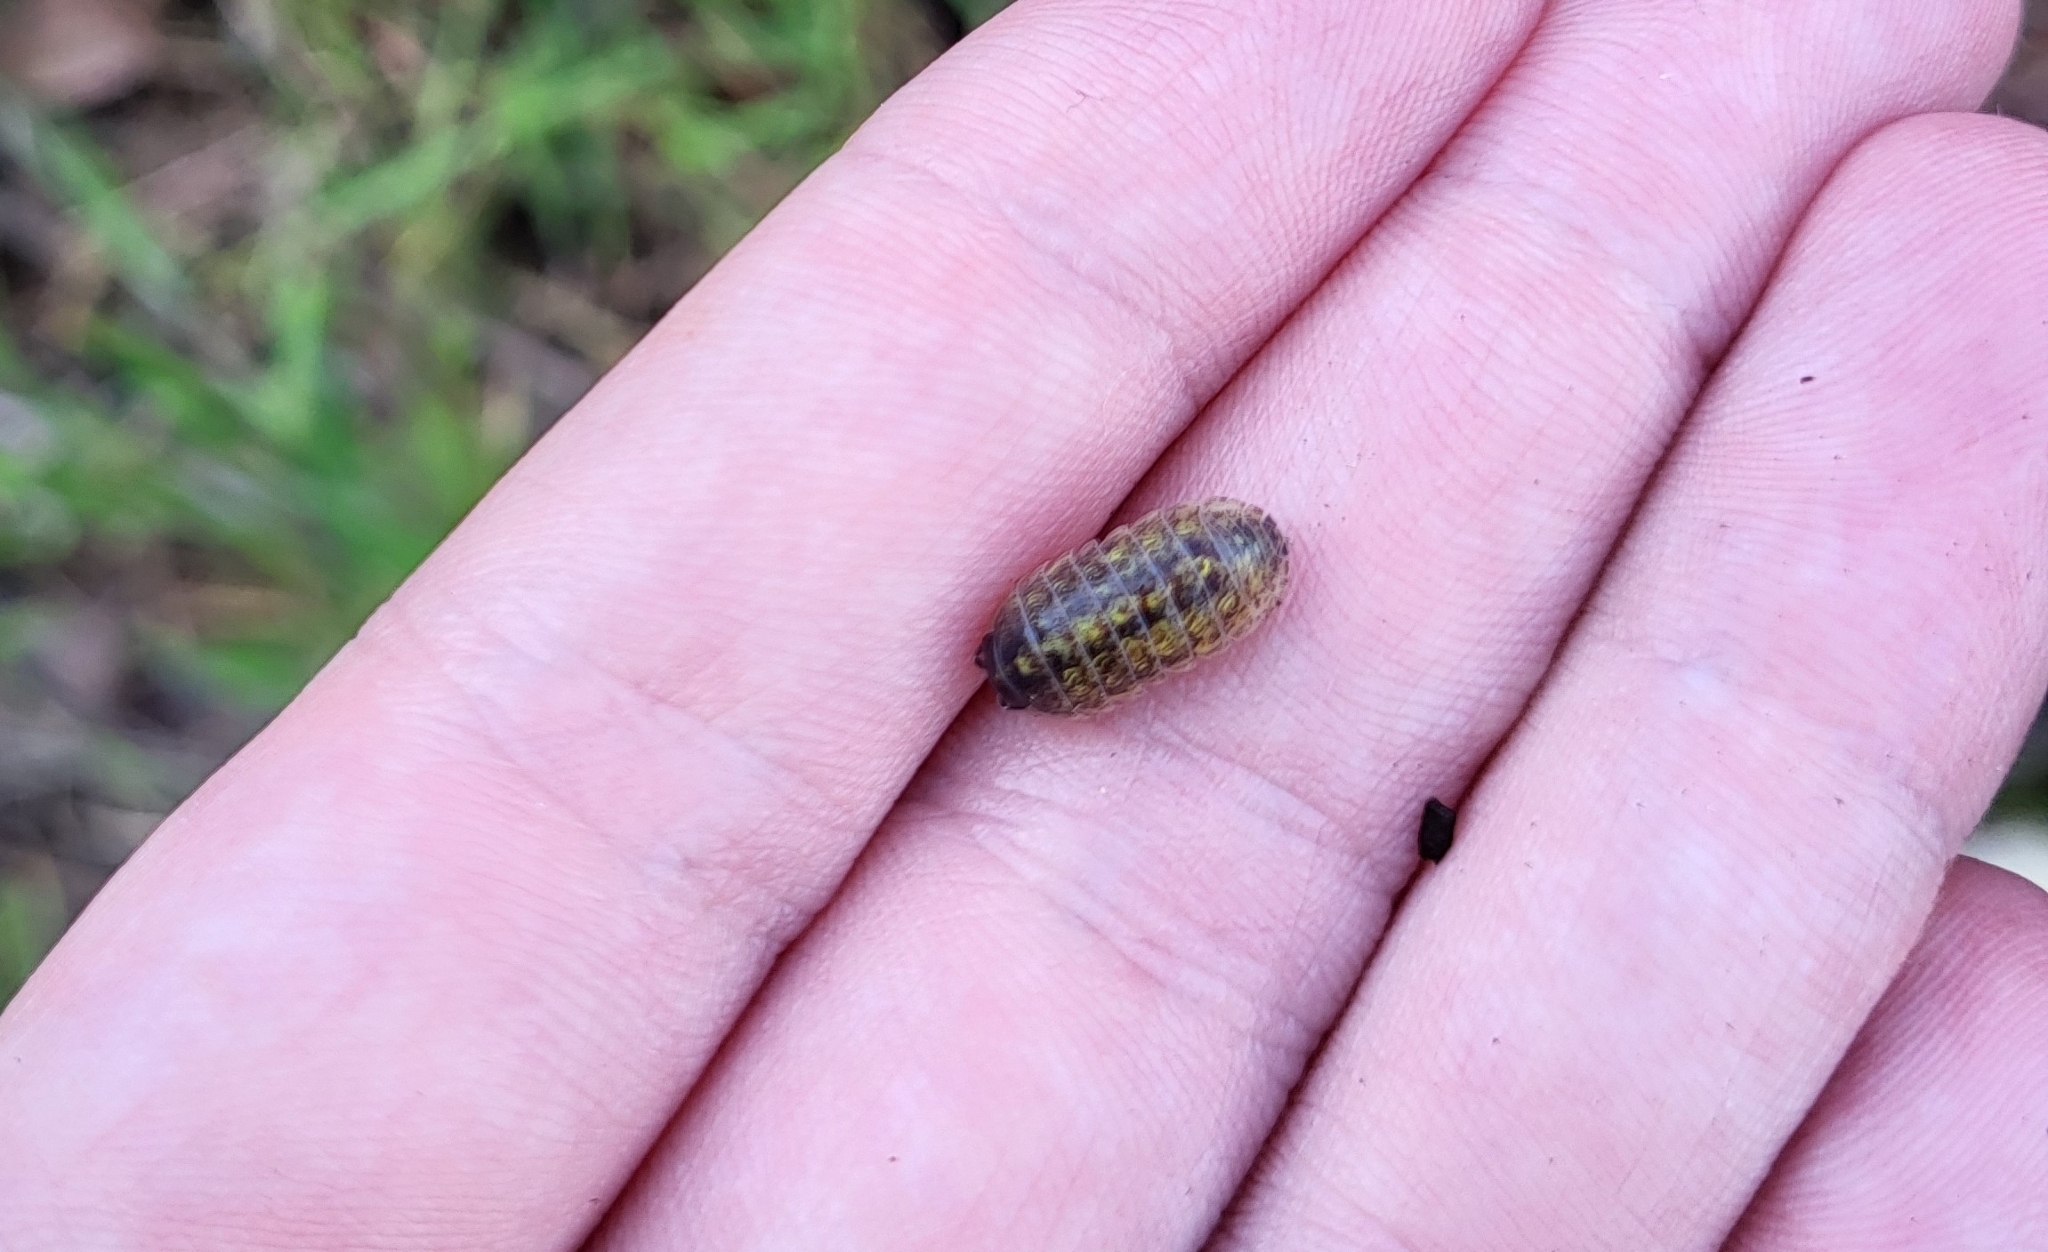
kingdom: Animalia
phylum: Arthropoda
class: Malacostraca
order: Isopoda
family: Armadillidiidae
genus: Armadillidium
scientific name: Armadillidium vulgare
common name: Common pill woodlouse
